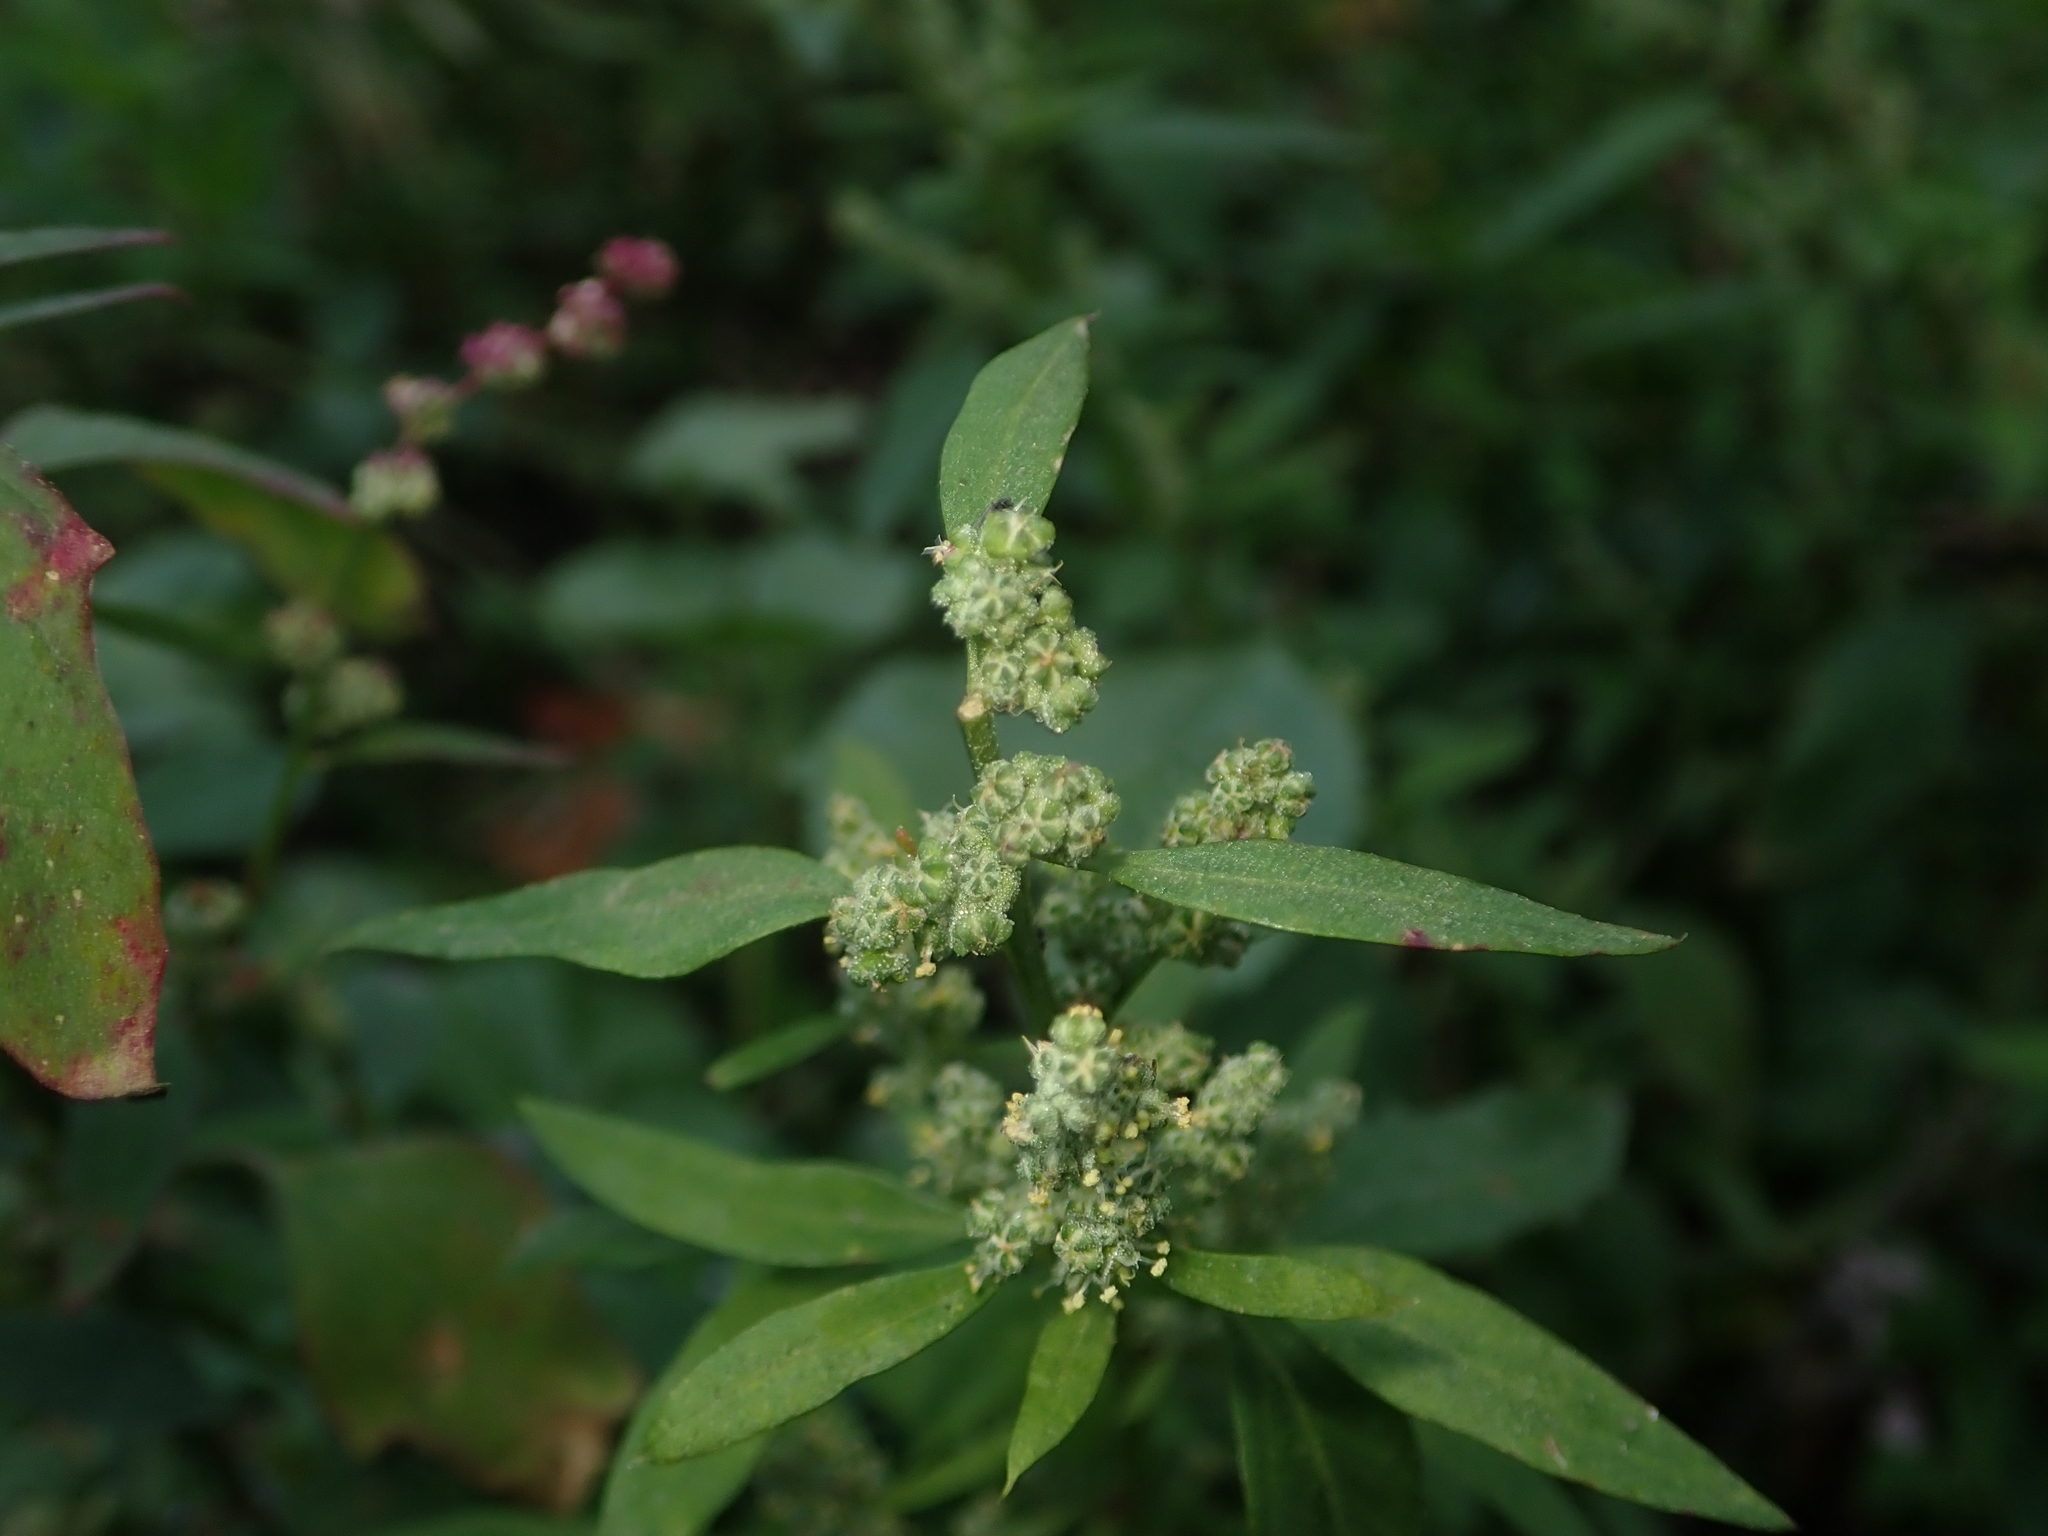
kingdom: Plantae
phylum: Tracheophyta
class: Magnoliopsida
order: Caryophyllales
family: Amaranthaceae
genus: Chenopodium
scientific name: Chenopodium album
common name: Fat-hen
